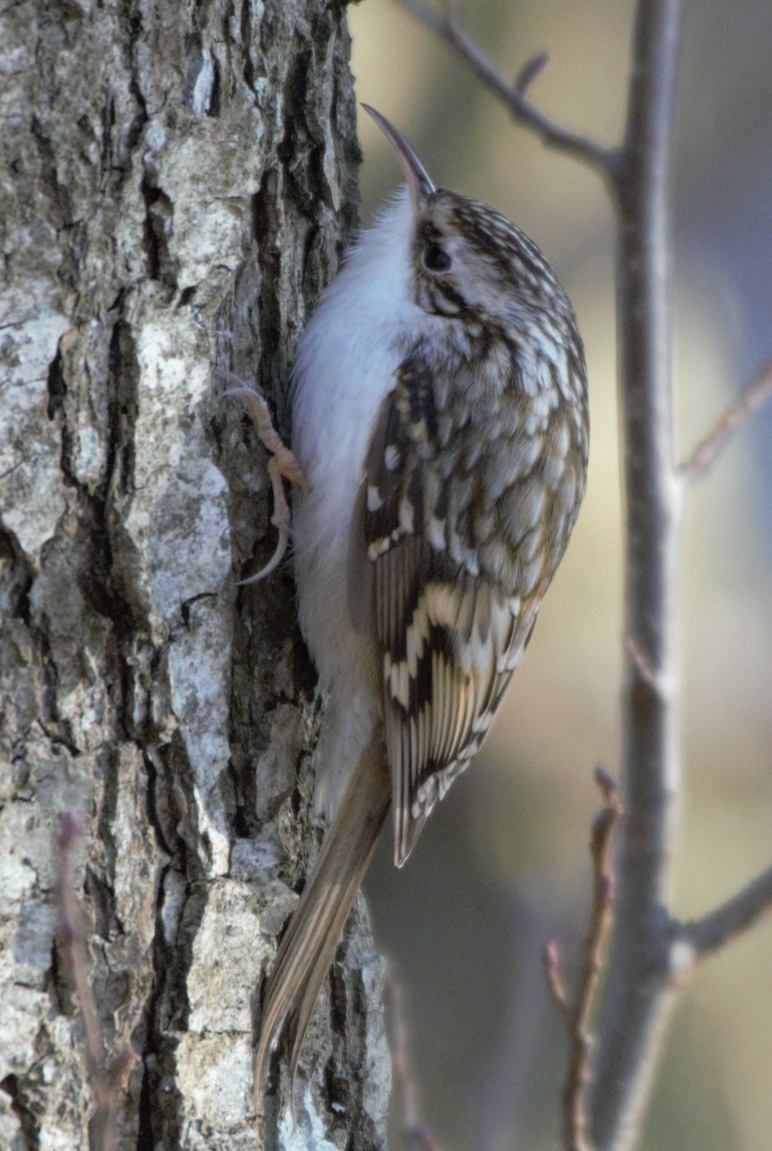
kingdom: Animalia
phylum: Chordata
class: Aves
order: Passeriformes
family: Certhiidae
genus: Certhia
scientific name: Certhia familiaris
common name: Eurasian treecreeper
